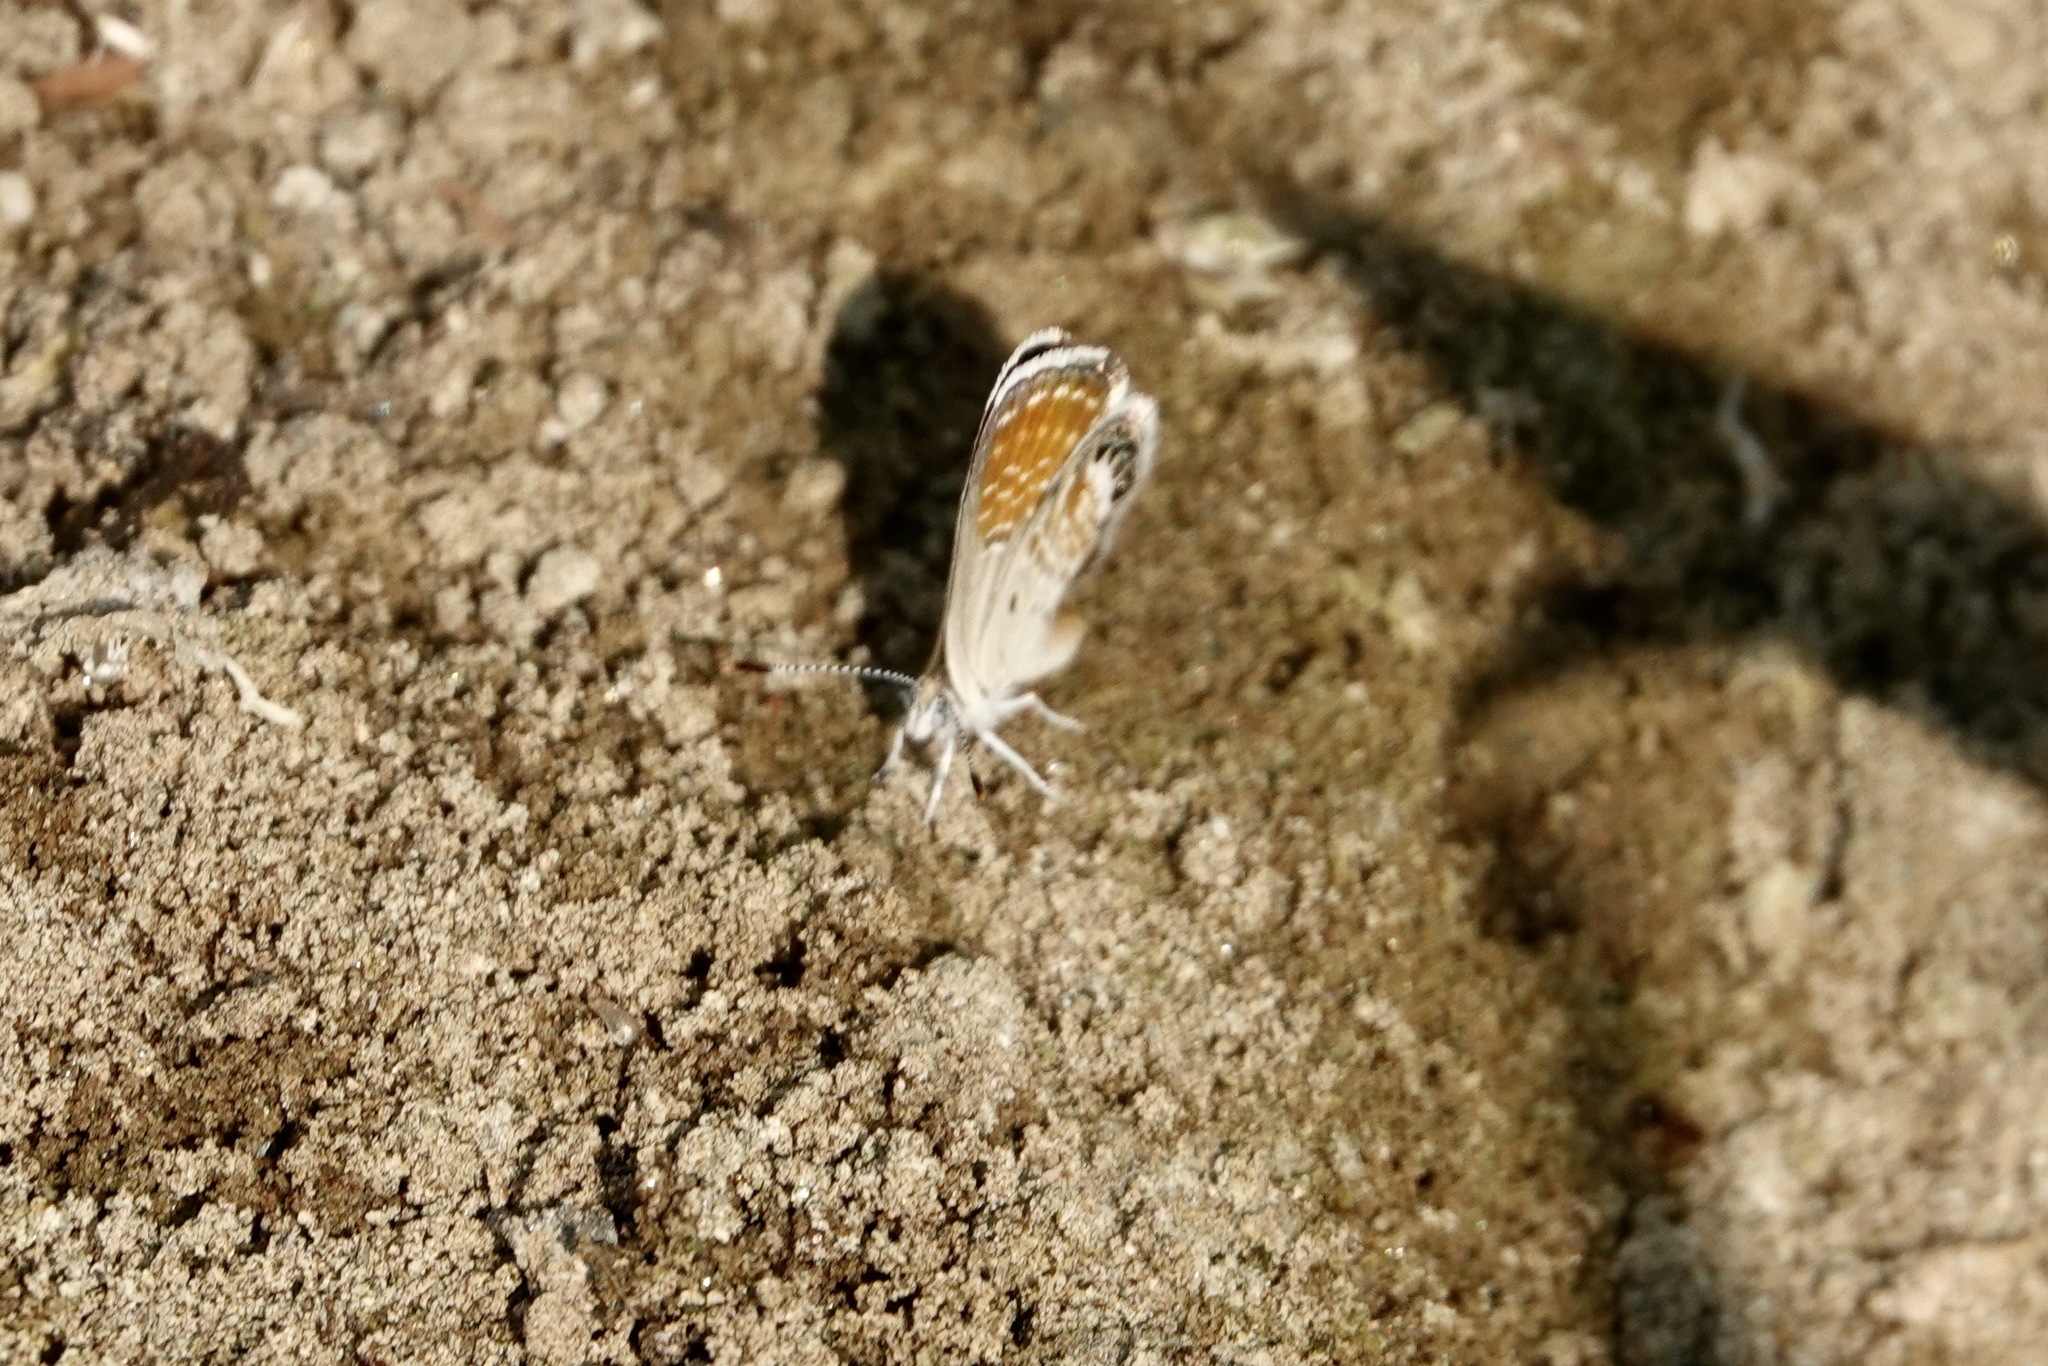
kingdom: Animalia
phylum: Arthropoda
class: Insecta
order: Lepidoptera
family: Lycaenidae
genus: Brephidium
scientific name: Brephidium exilis
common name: Pygmy blue
